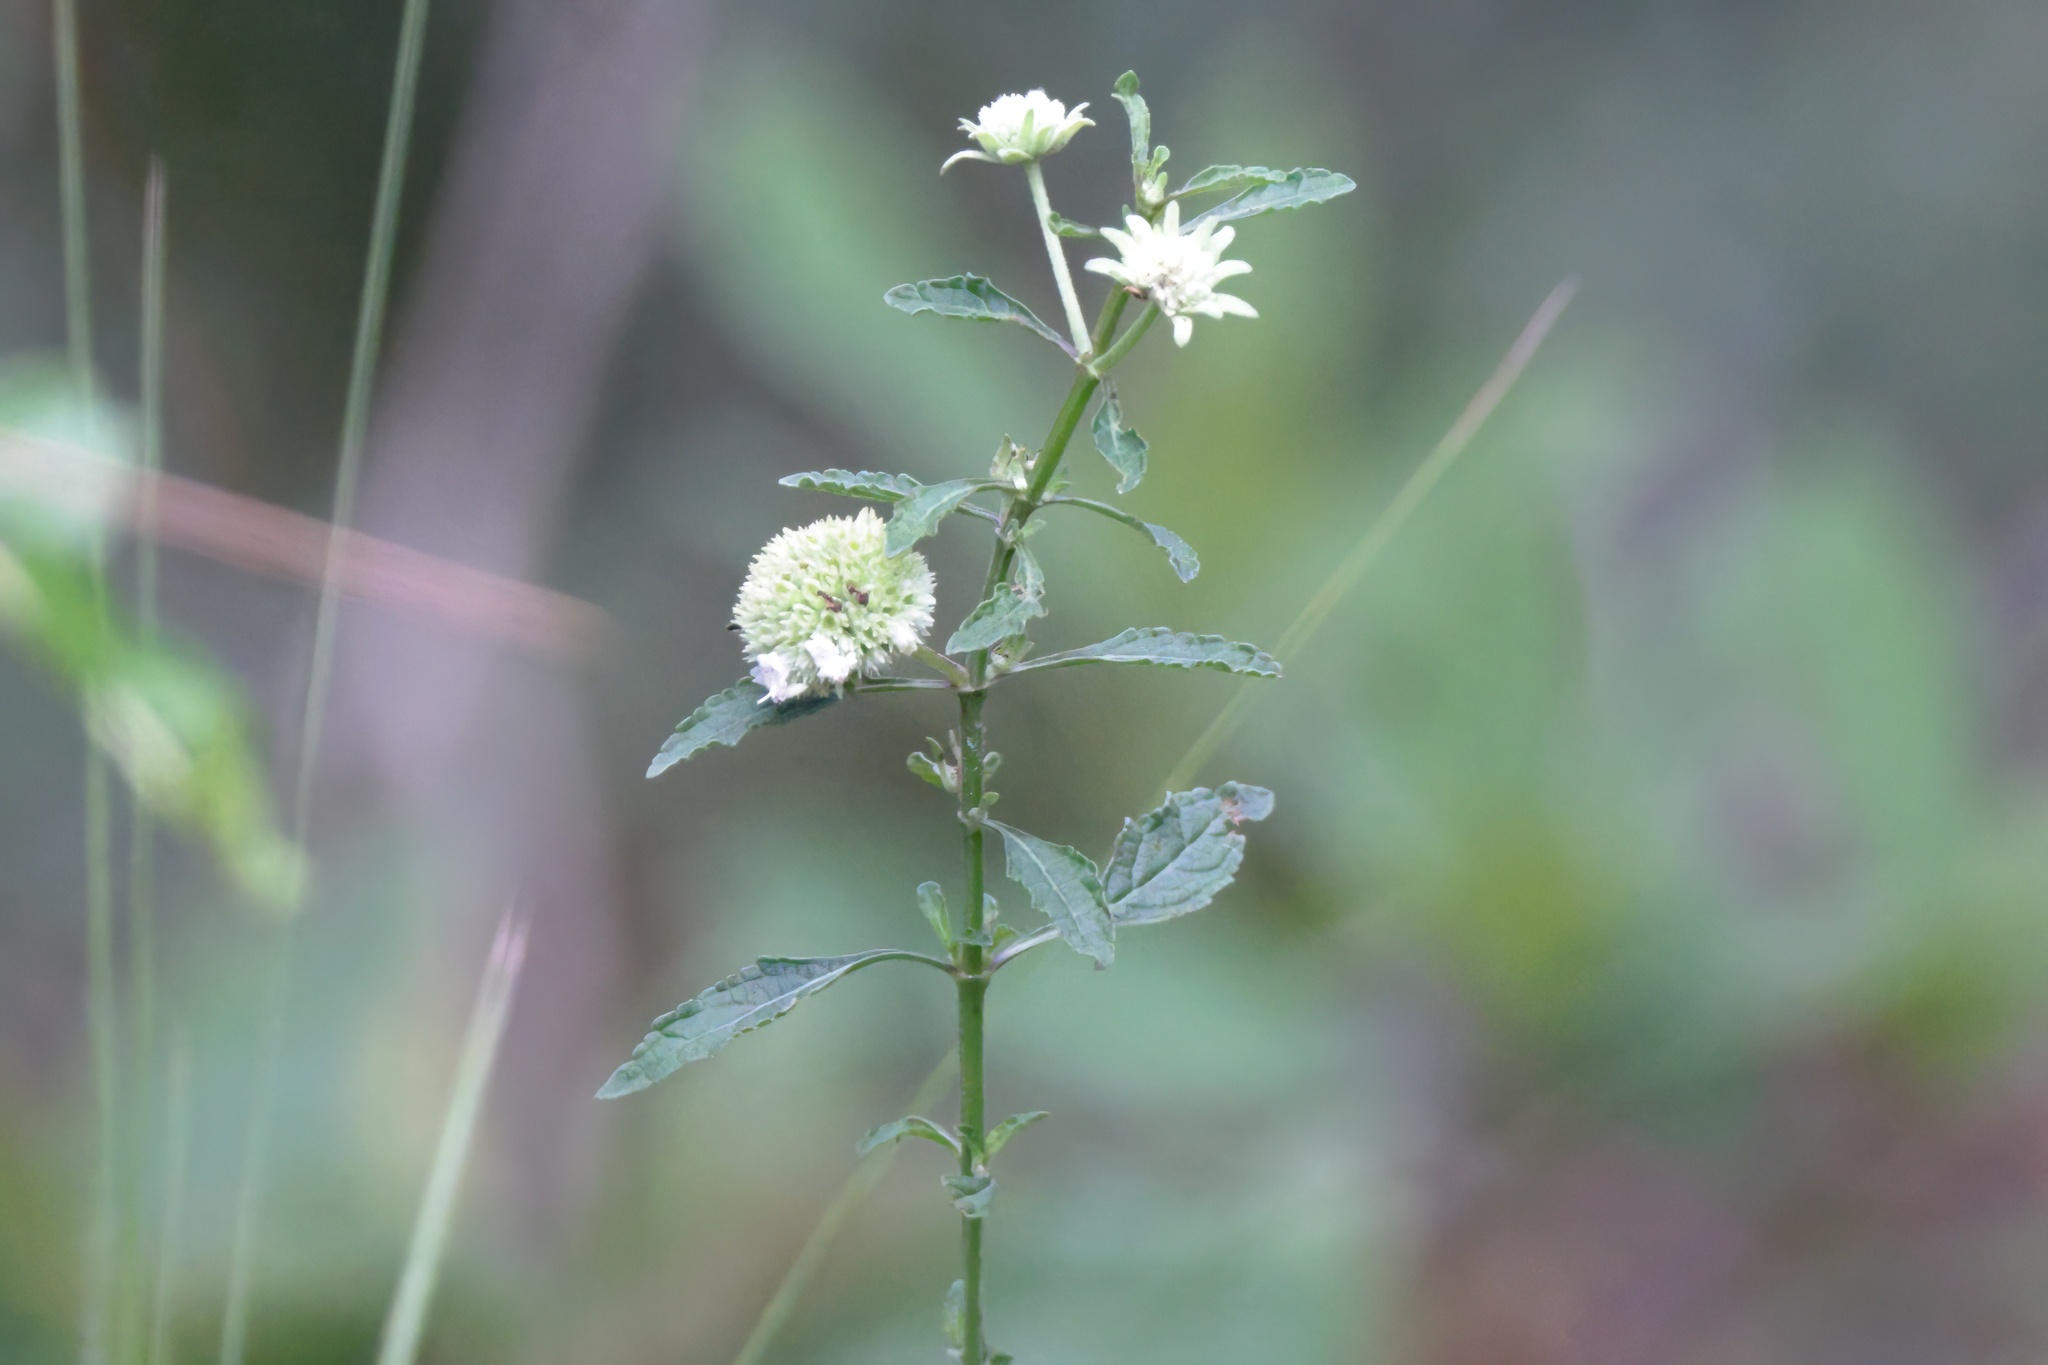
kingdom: Plantae
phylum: Tracheophyta
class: Magnoliopsida
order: Lamiales
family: Lamiaceae
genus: Hyptis
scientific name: Hyptis alata
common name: Cluster bush-mint
